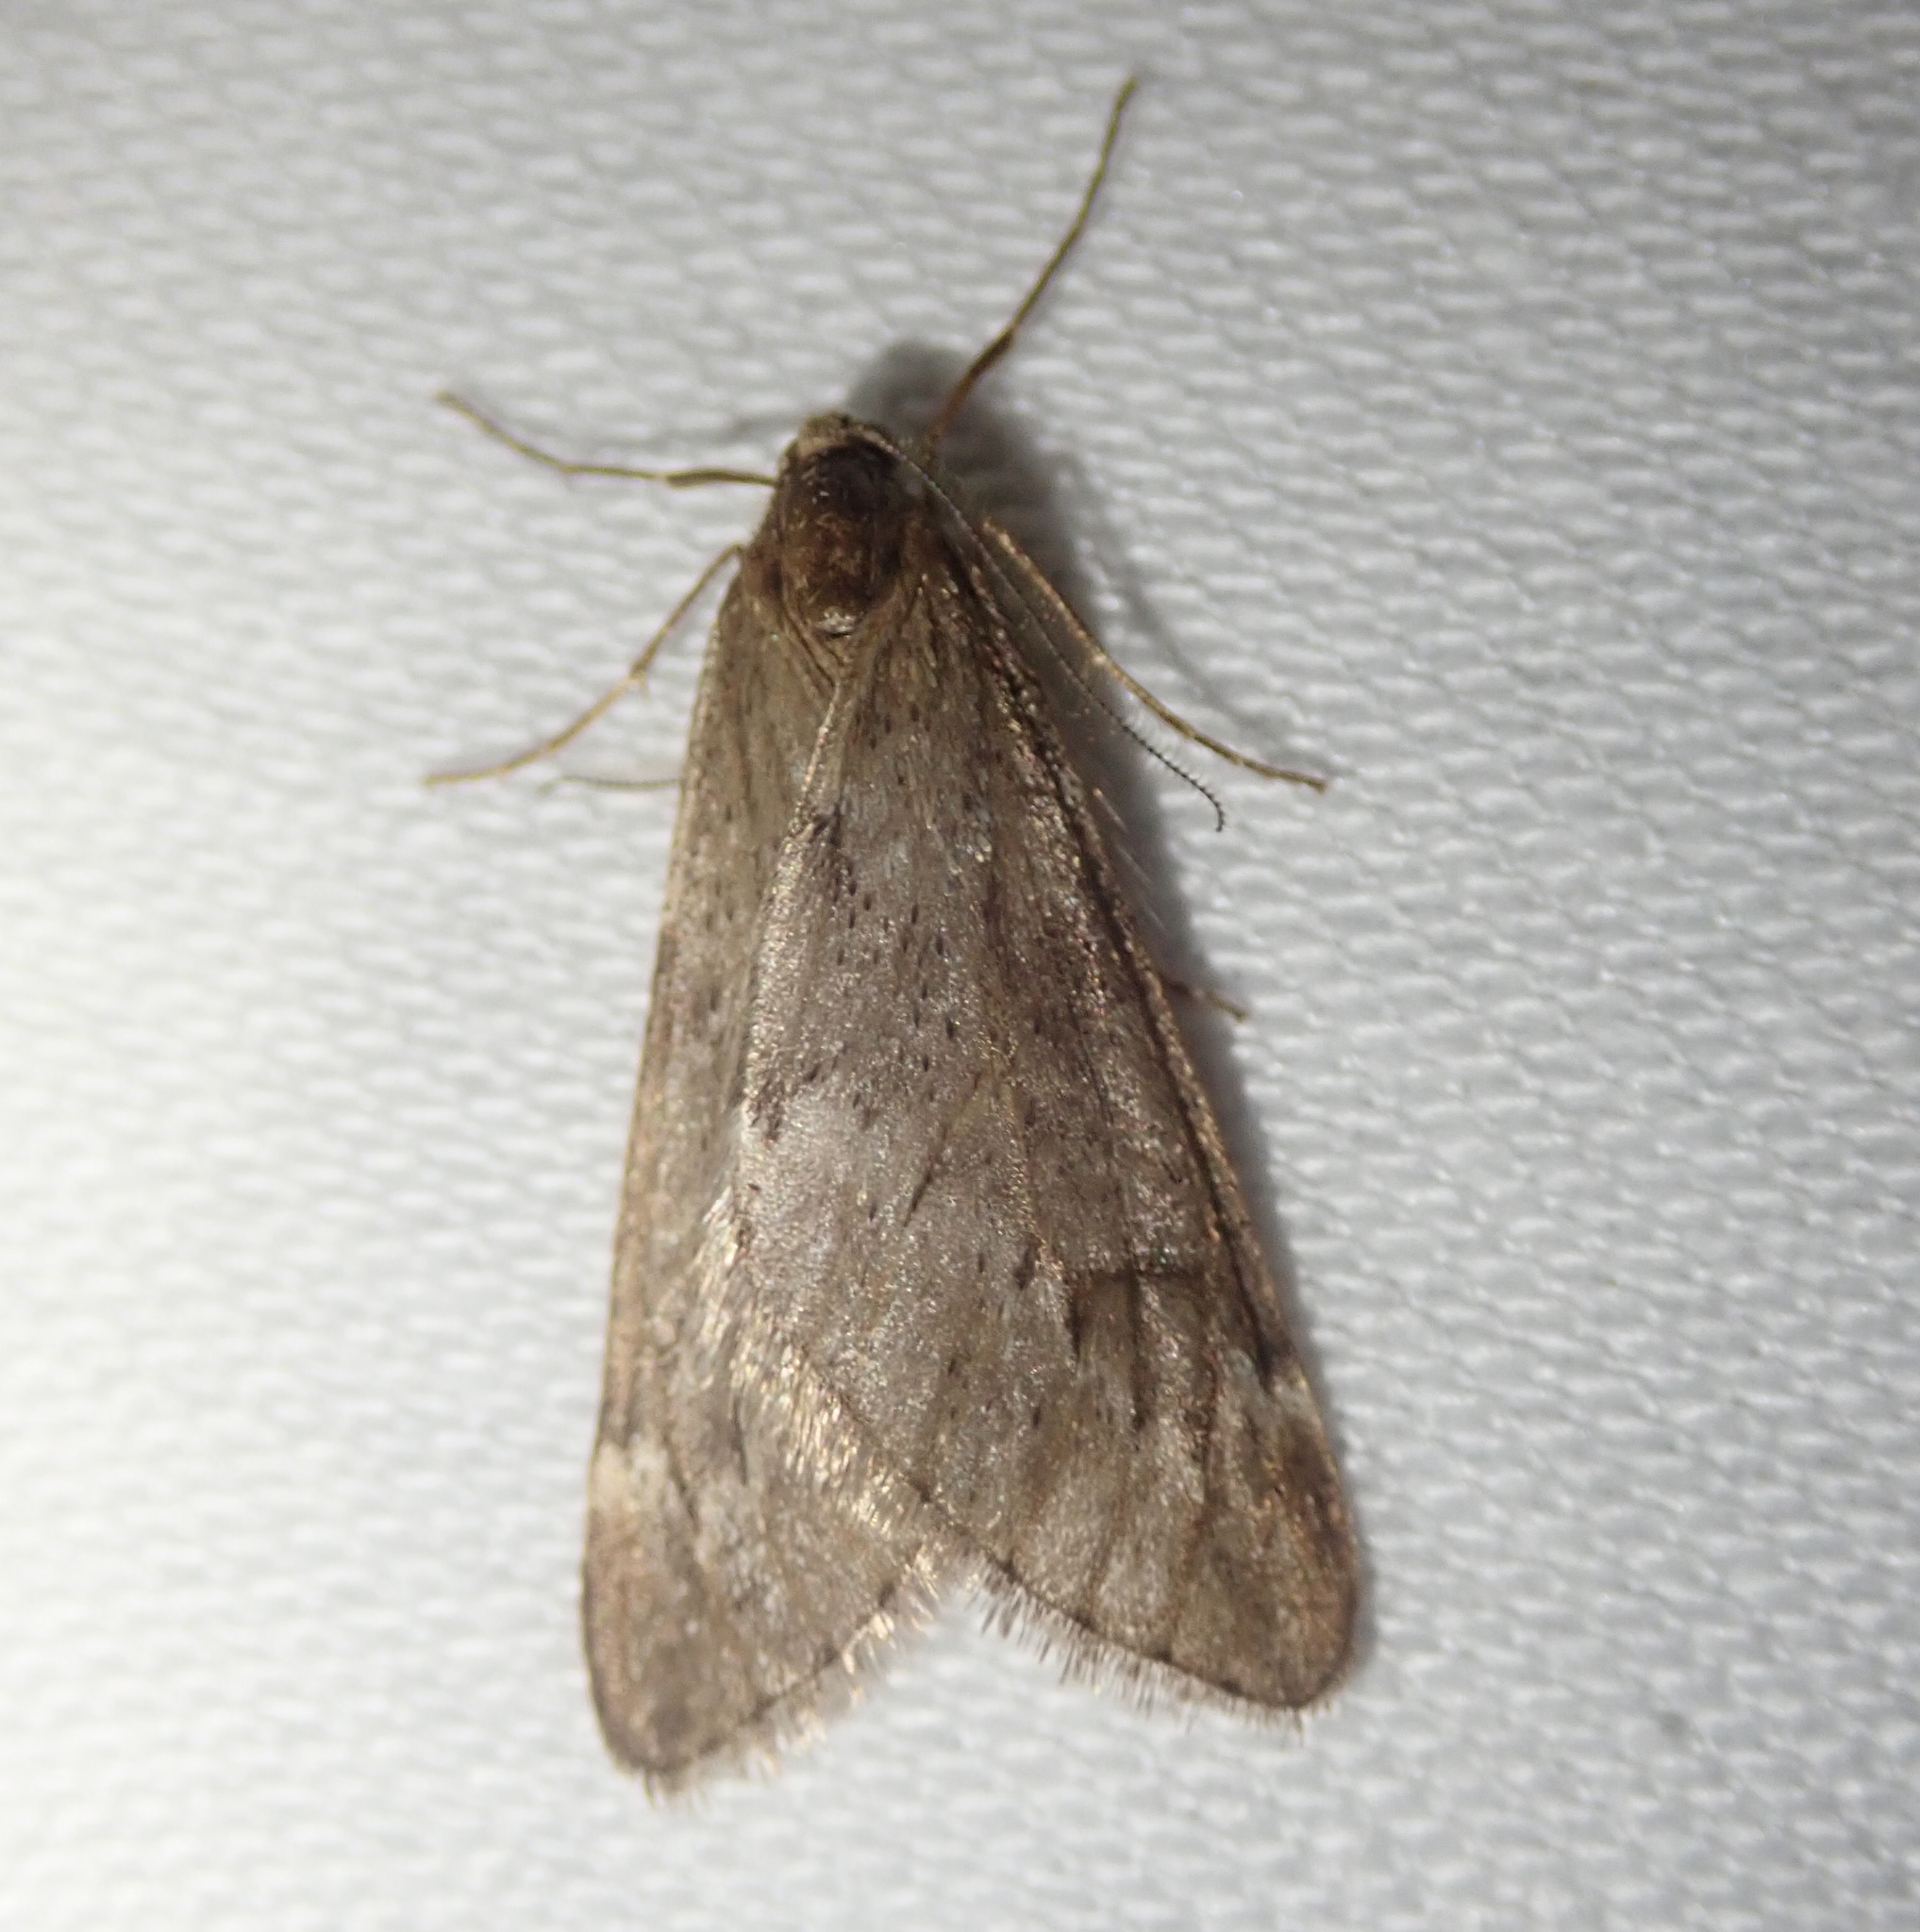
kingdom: Animalia
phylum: Arthropoda
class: Insecta
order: Lepidoptera
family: Geometridae
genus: Alsophila
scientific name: Alsophila aescularia
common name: March moth
